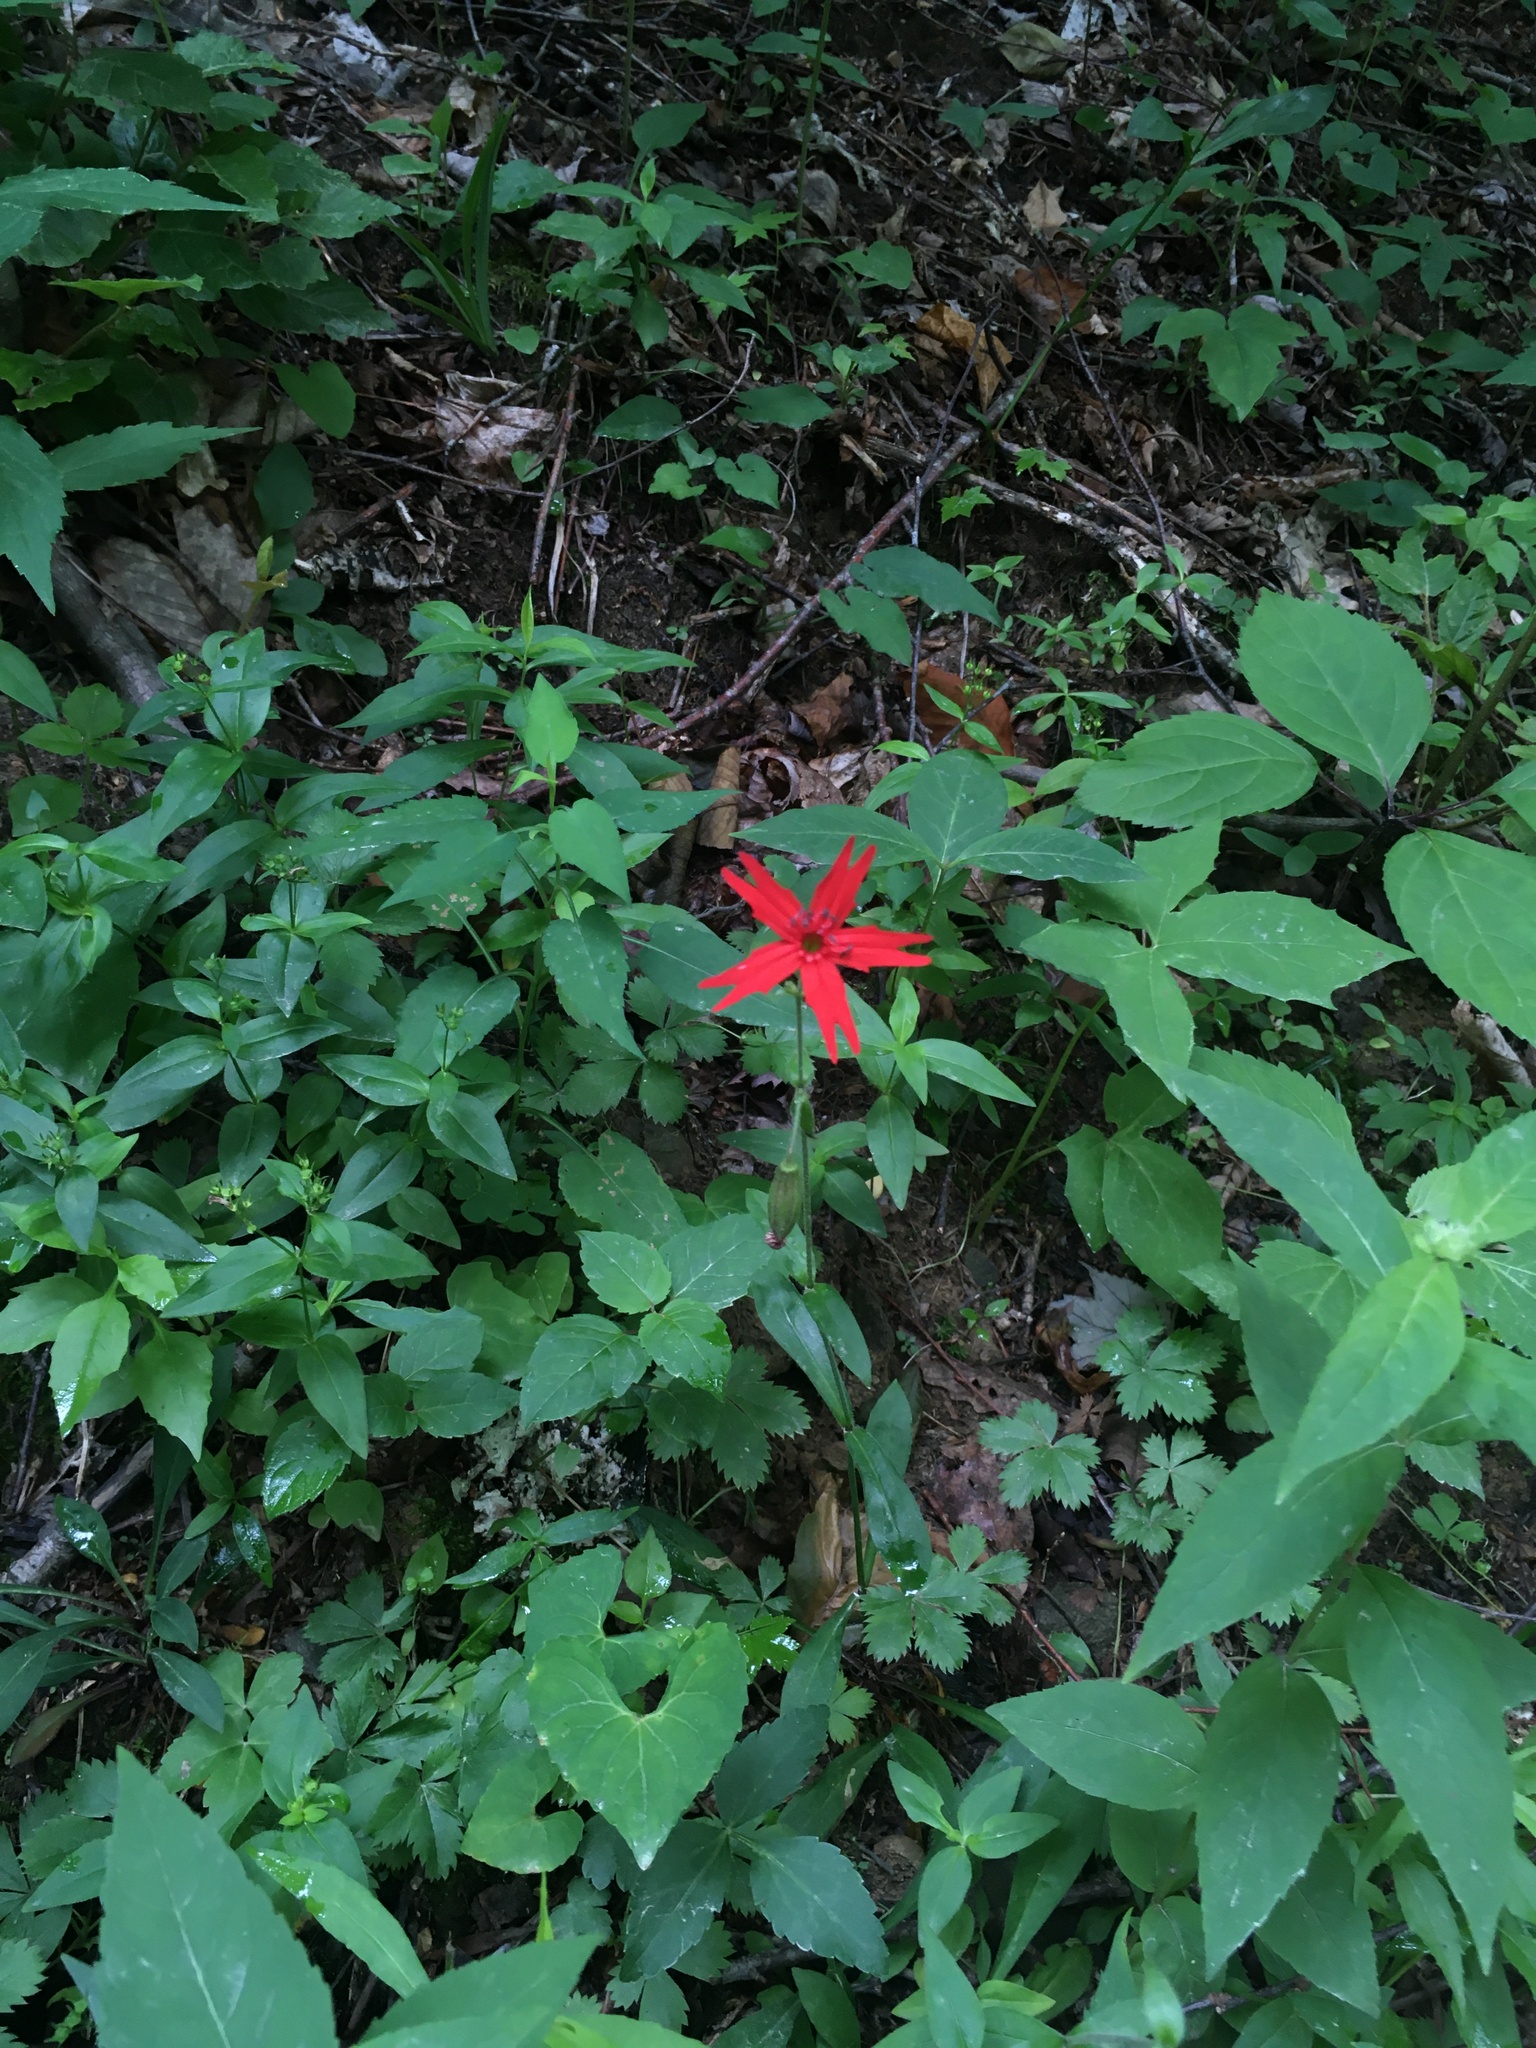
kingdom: Plantae
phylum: Tracheophyta
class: Magnoliopsida
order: Caryophyllales
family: Caryophyllaceae
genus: Silene
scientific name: Silene virginica
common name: Fire-pink
